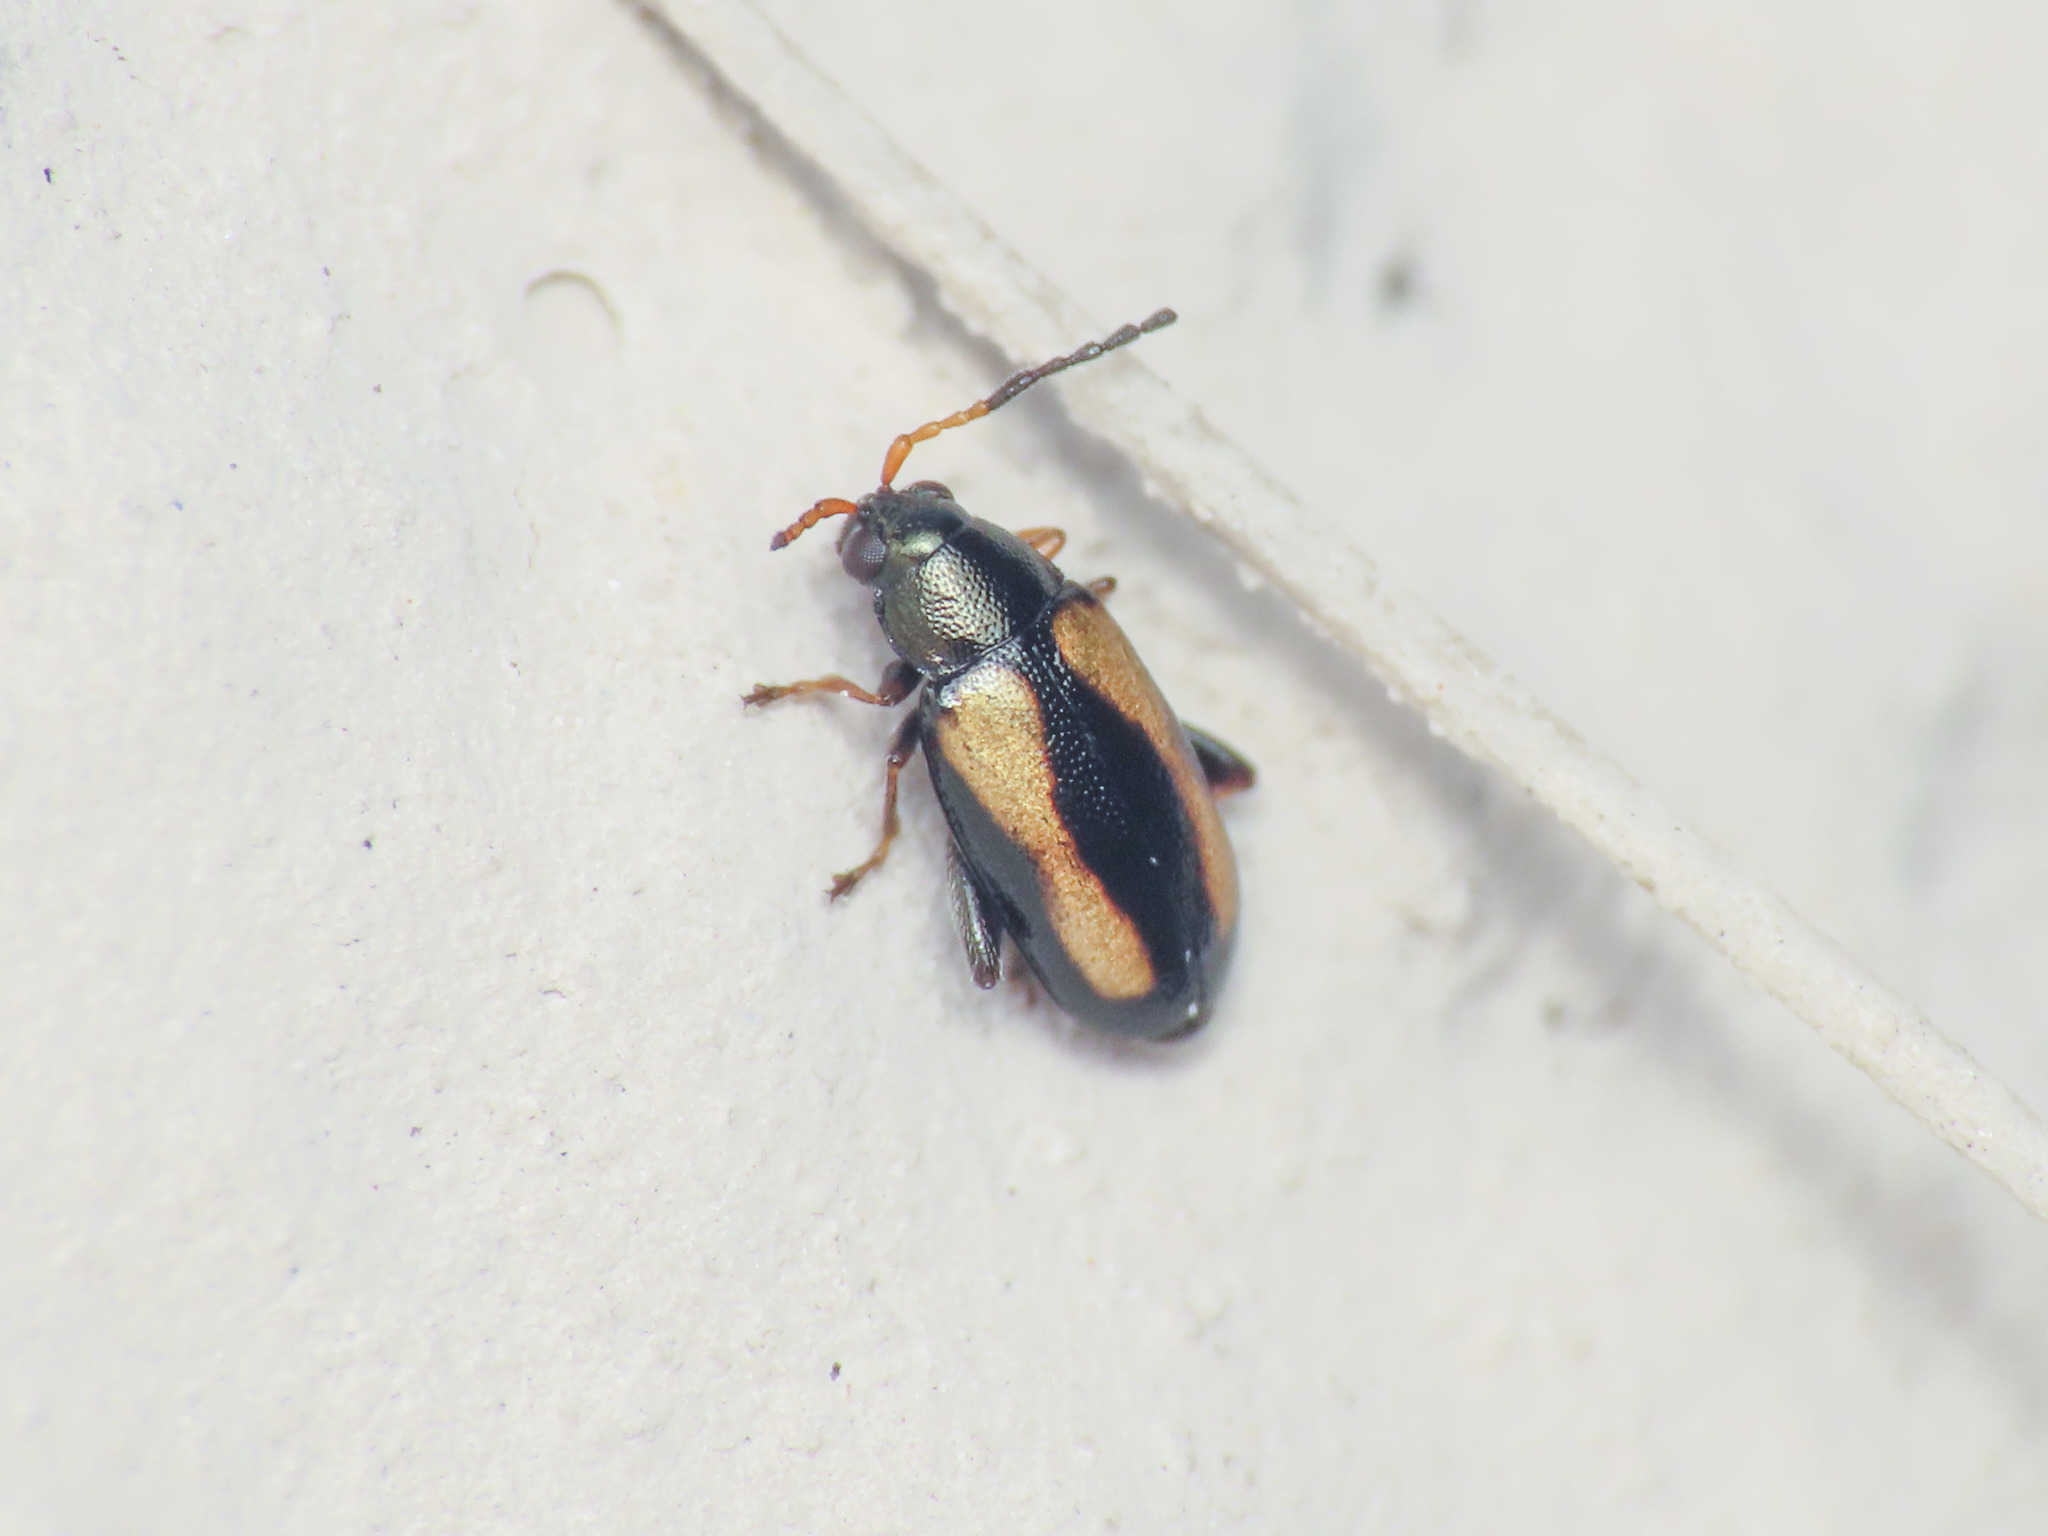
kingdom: Animalia
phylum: Arthropoda
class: Insecta
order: Coleoptera
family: Chrysomelidae
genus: Phyllotreta
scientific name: Phyllotreta variipennis
